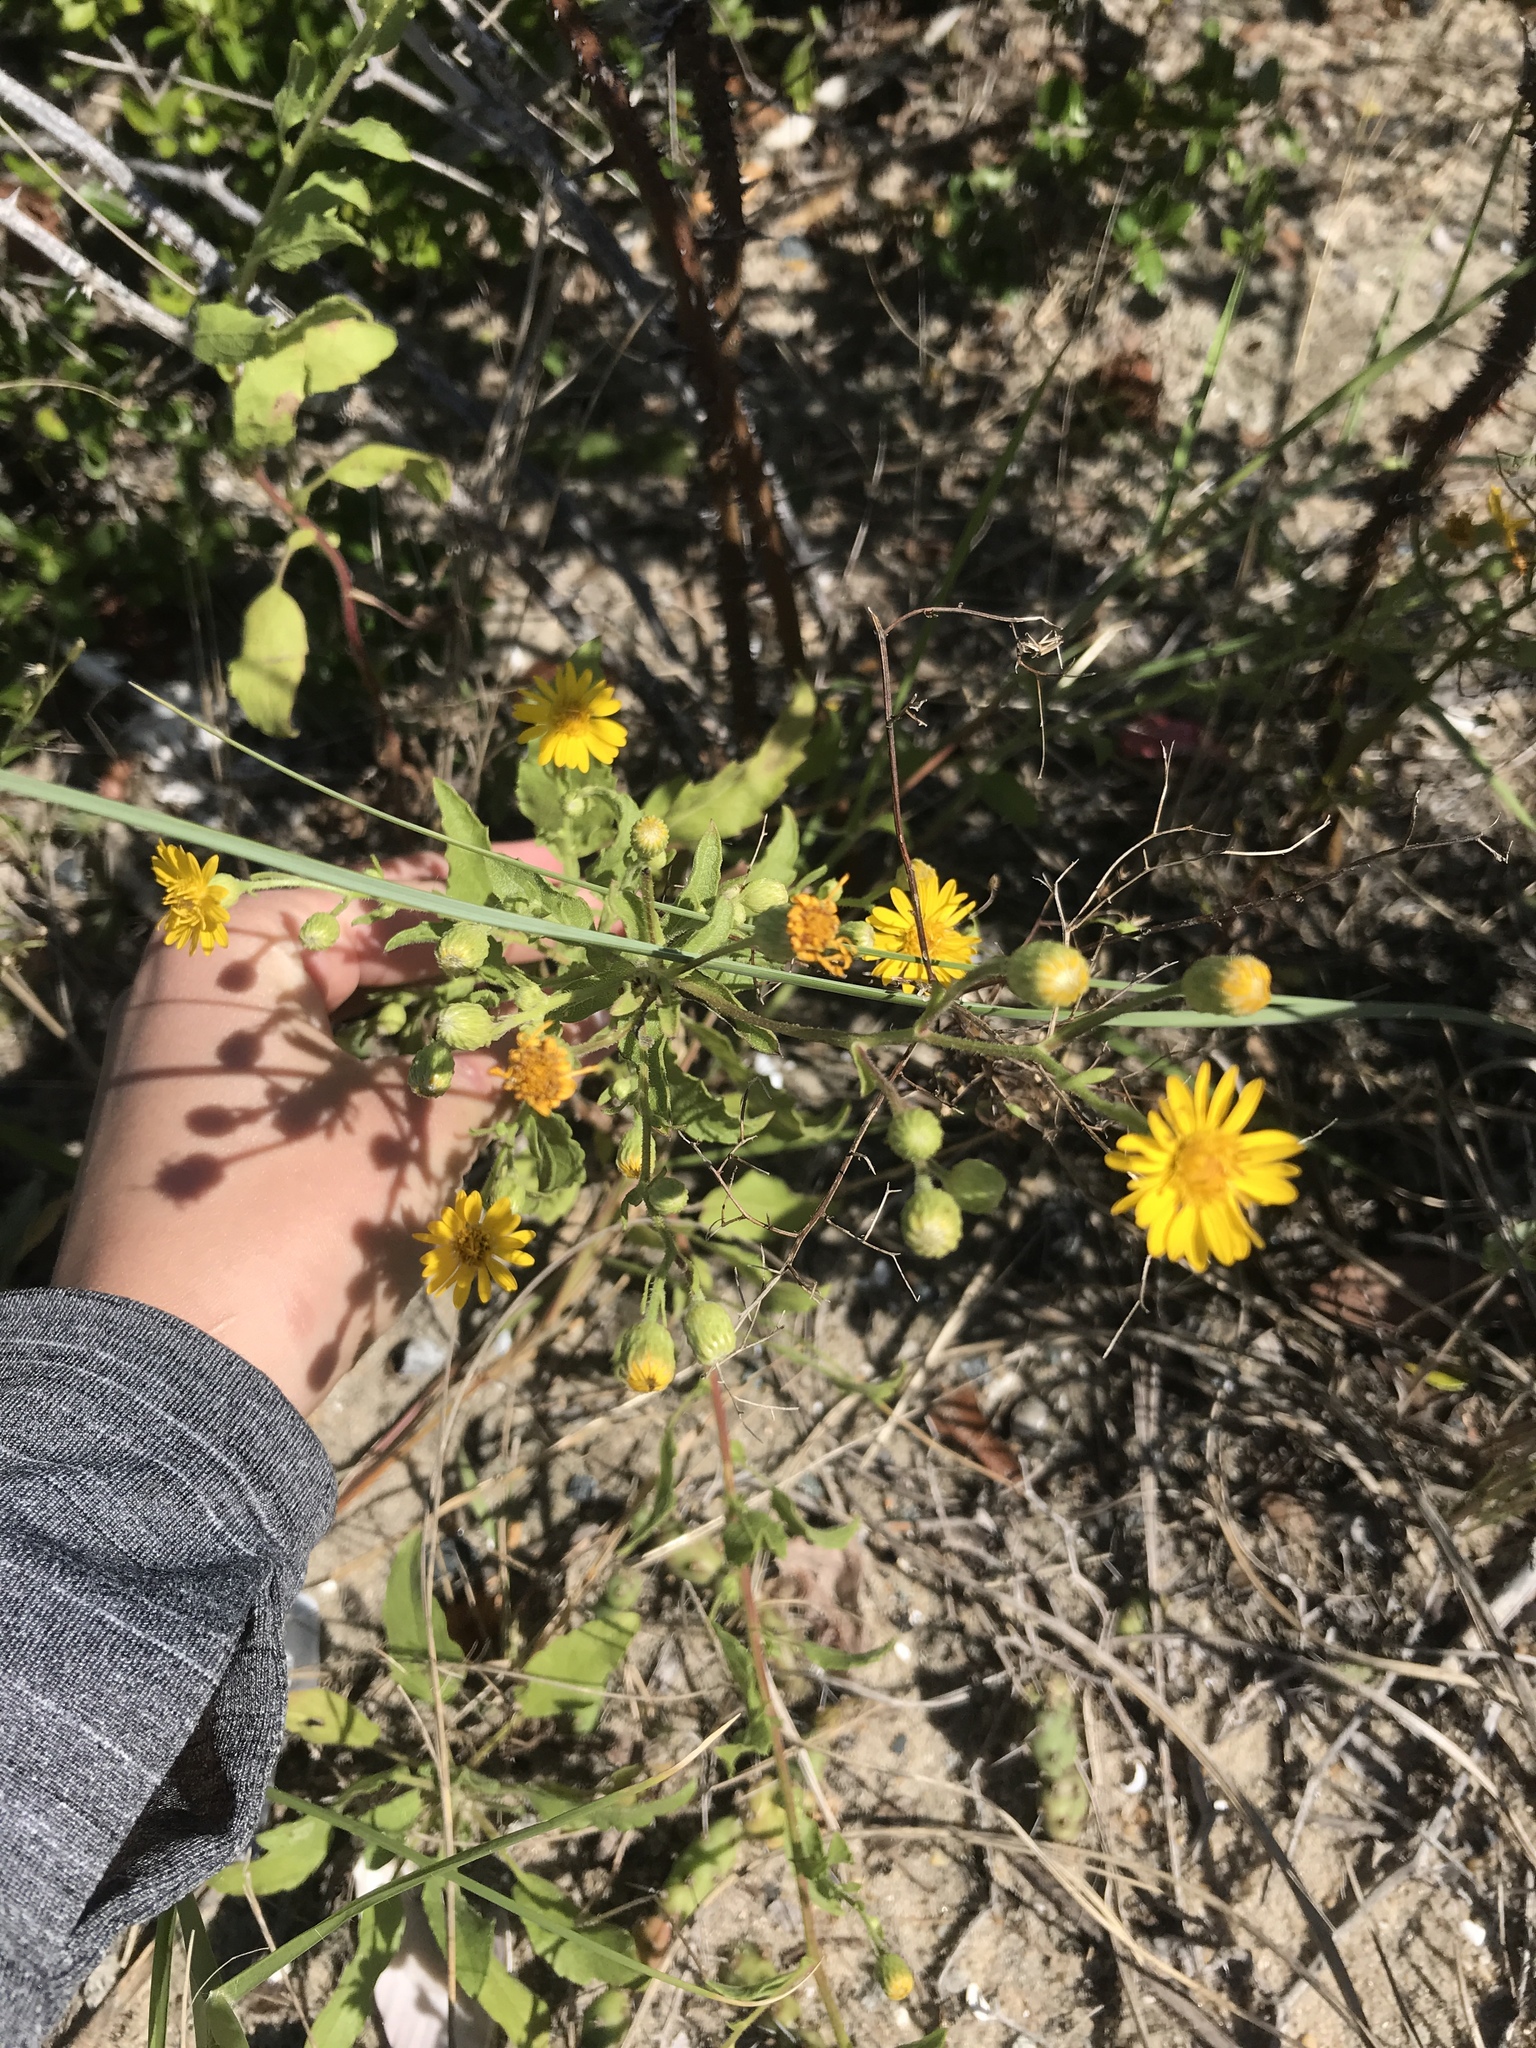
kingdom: Plantae
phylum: Tracheophyta
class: Magnoliopsida
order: Asterales
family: Asteraceae
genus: Heterotheca
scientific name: Heterotheca subaxillaris
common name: Camphorweed
